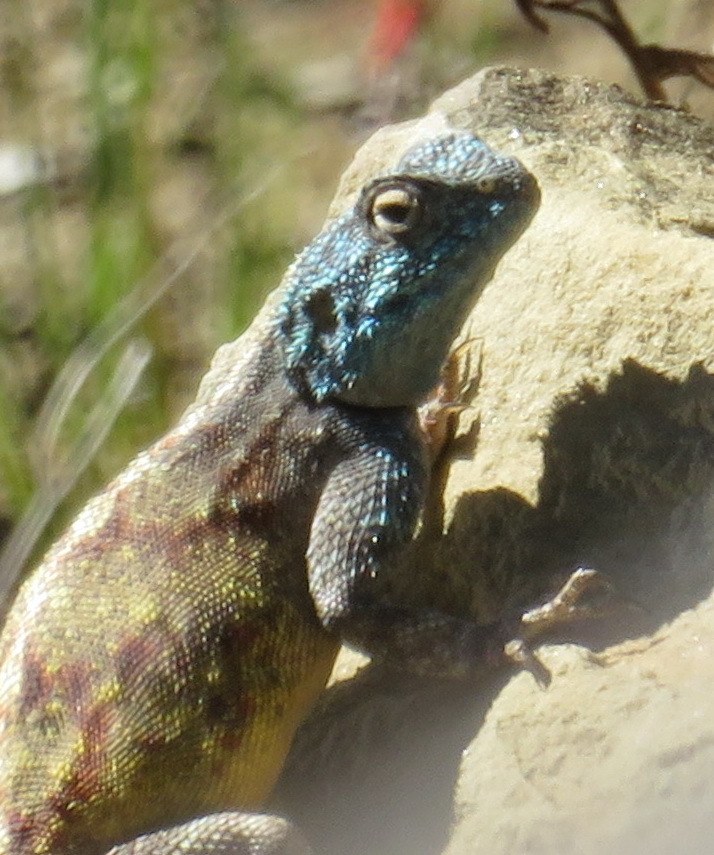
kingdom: Animalia
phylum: Chordata
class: Squamata
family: Agamidae
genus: Agama
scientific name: Agama atra
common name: Southern african rock agama
